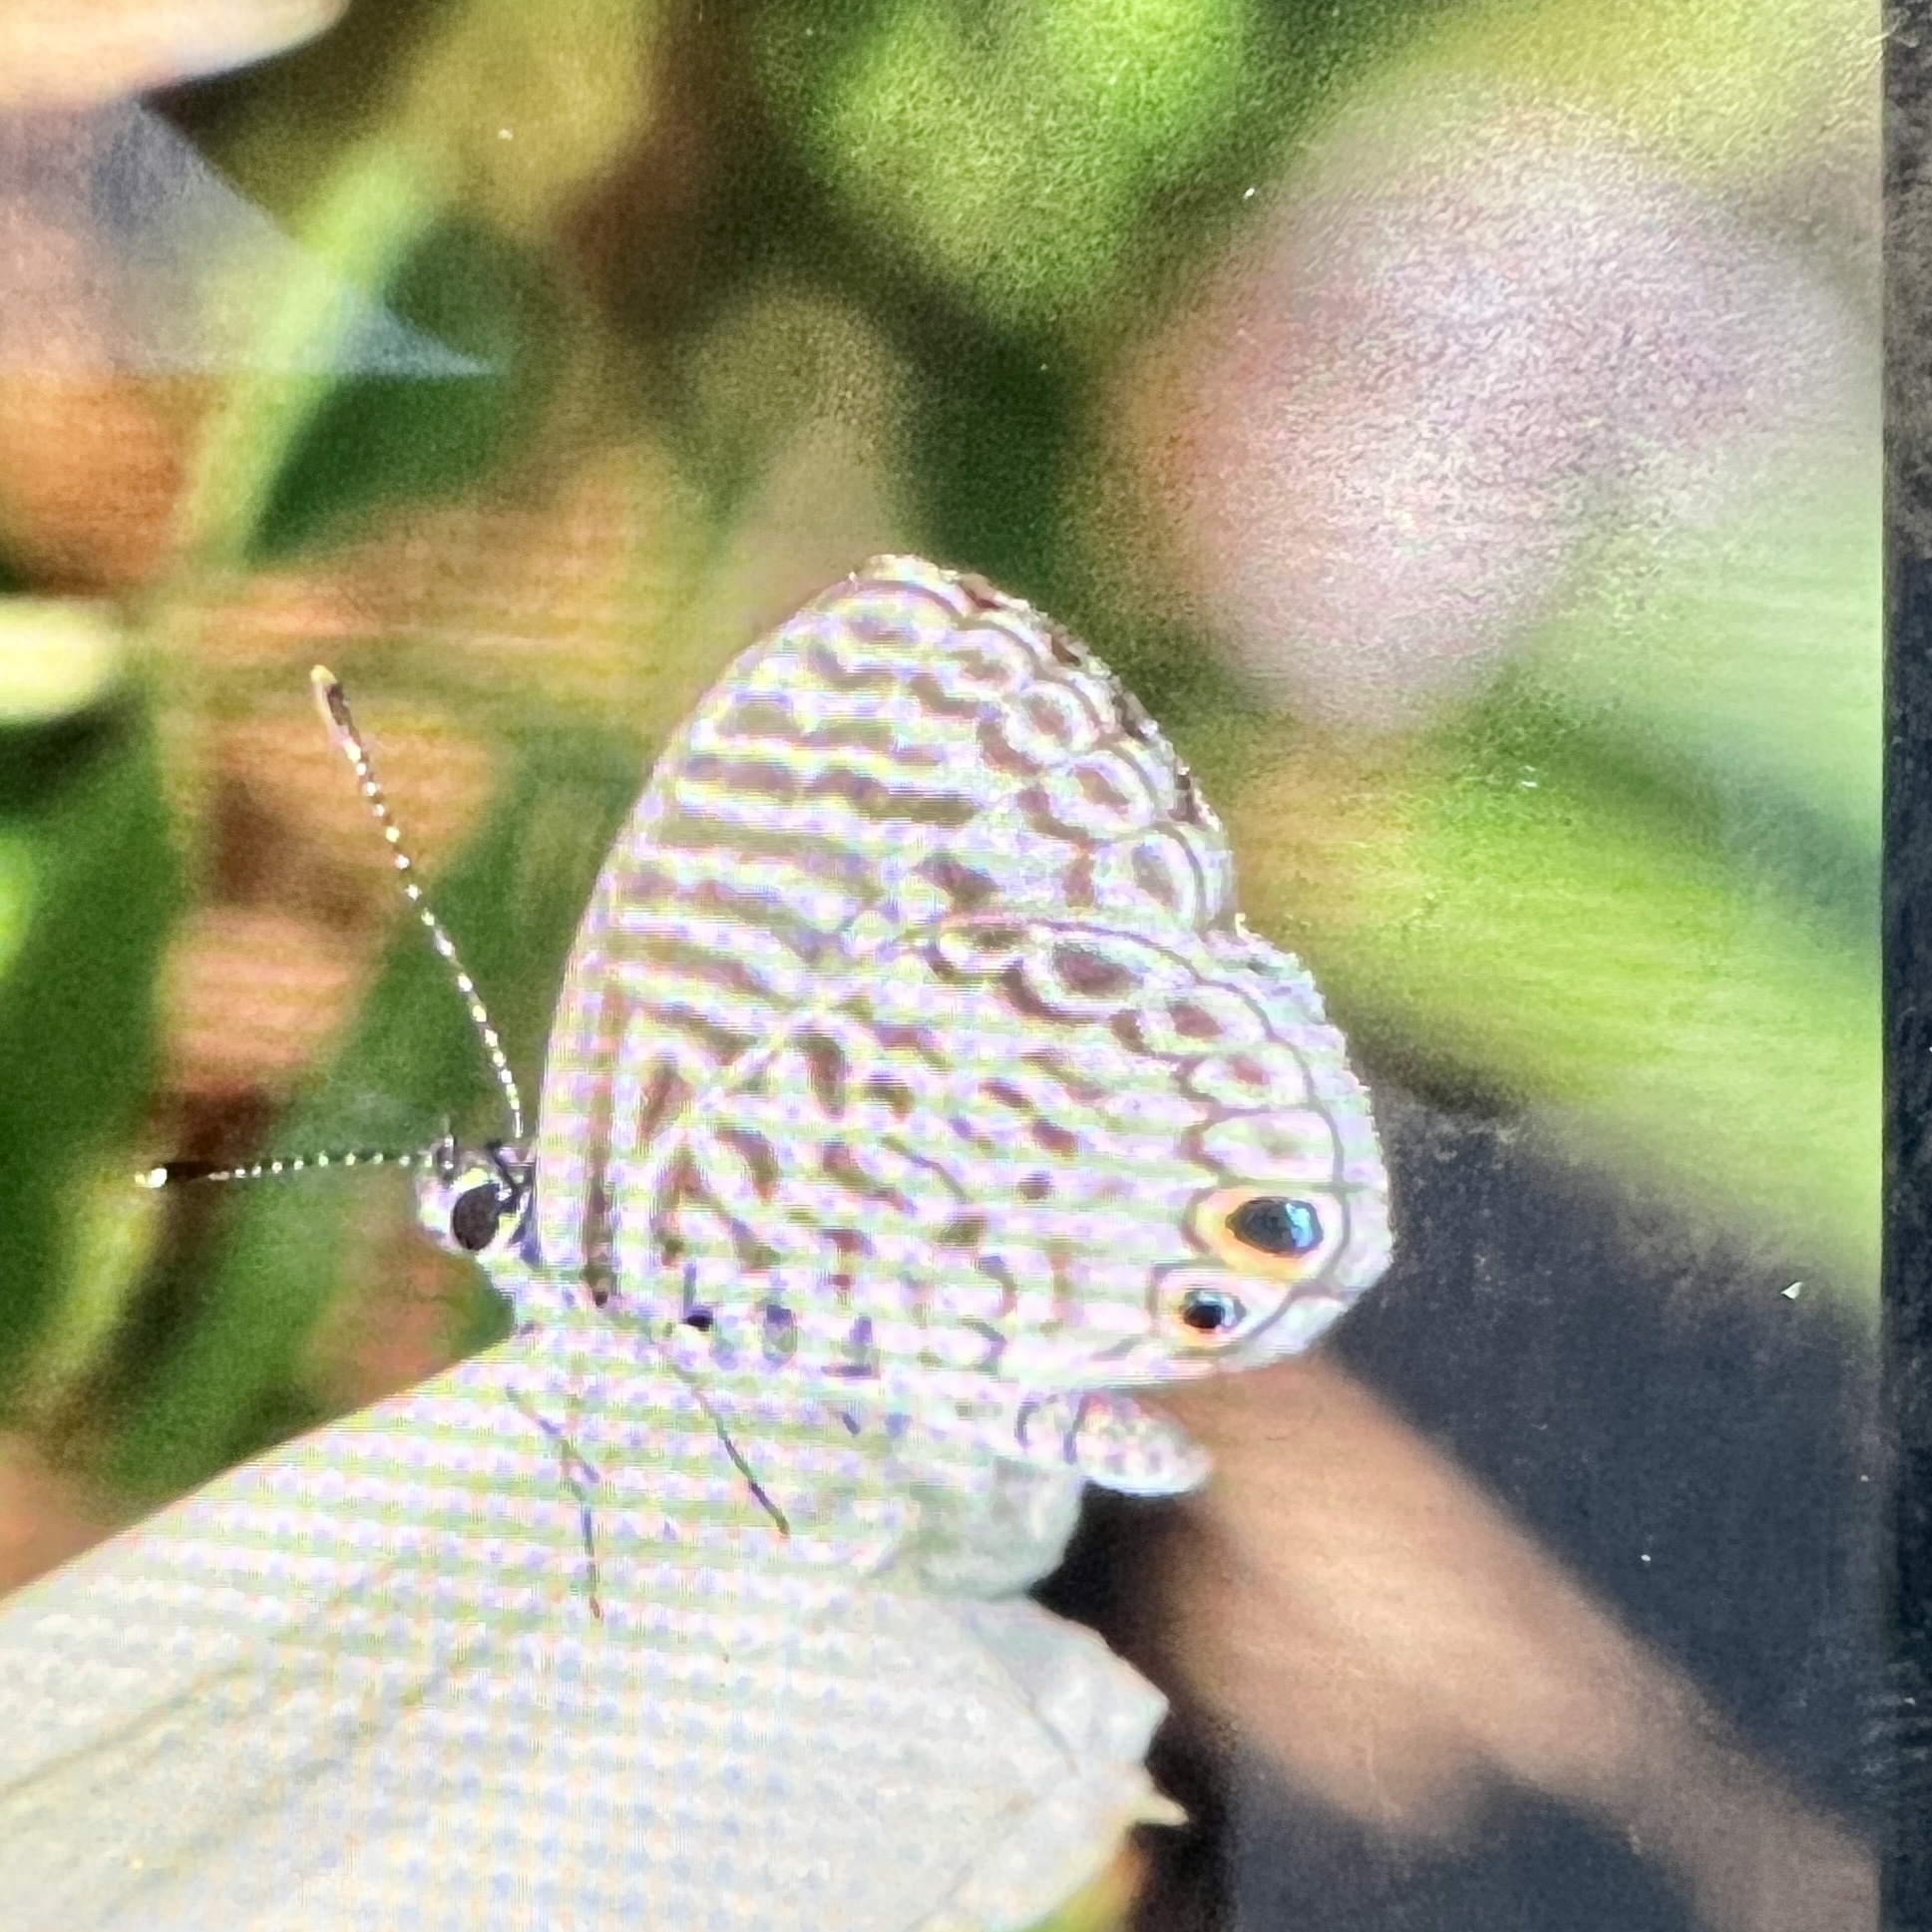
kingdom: Animalia
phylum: Arthropoda
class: Insecta
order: Lepidoptera
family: Lycaenidae
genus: Leptotes
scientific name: Leptotes cassius
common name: Cassius blue
